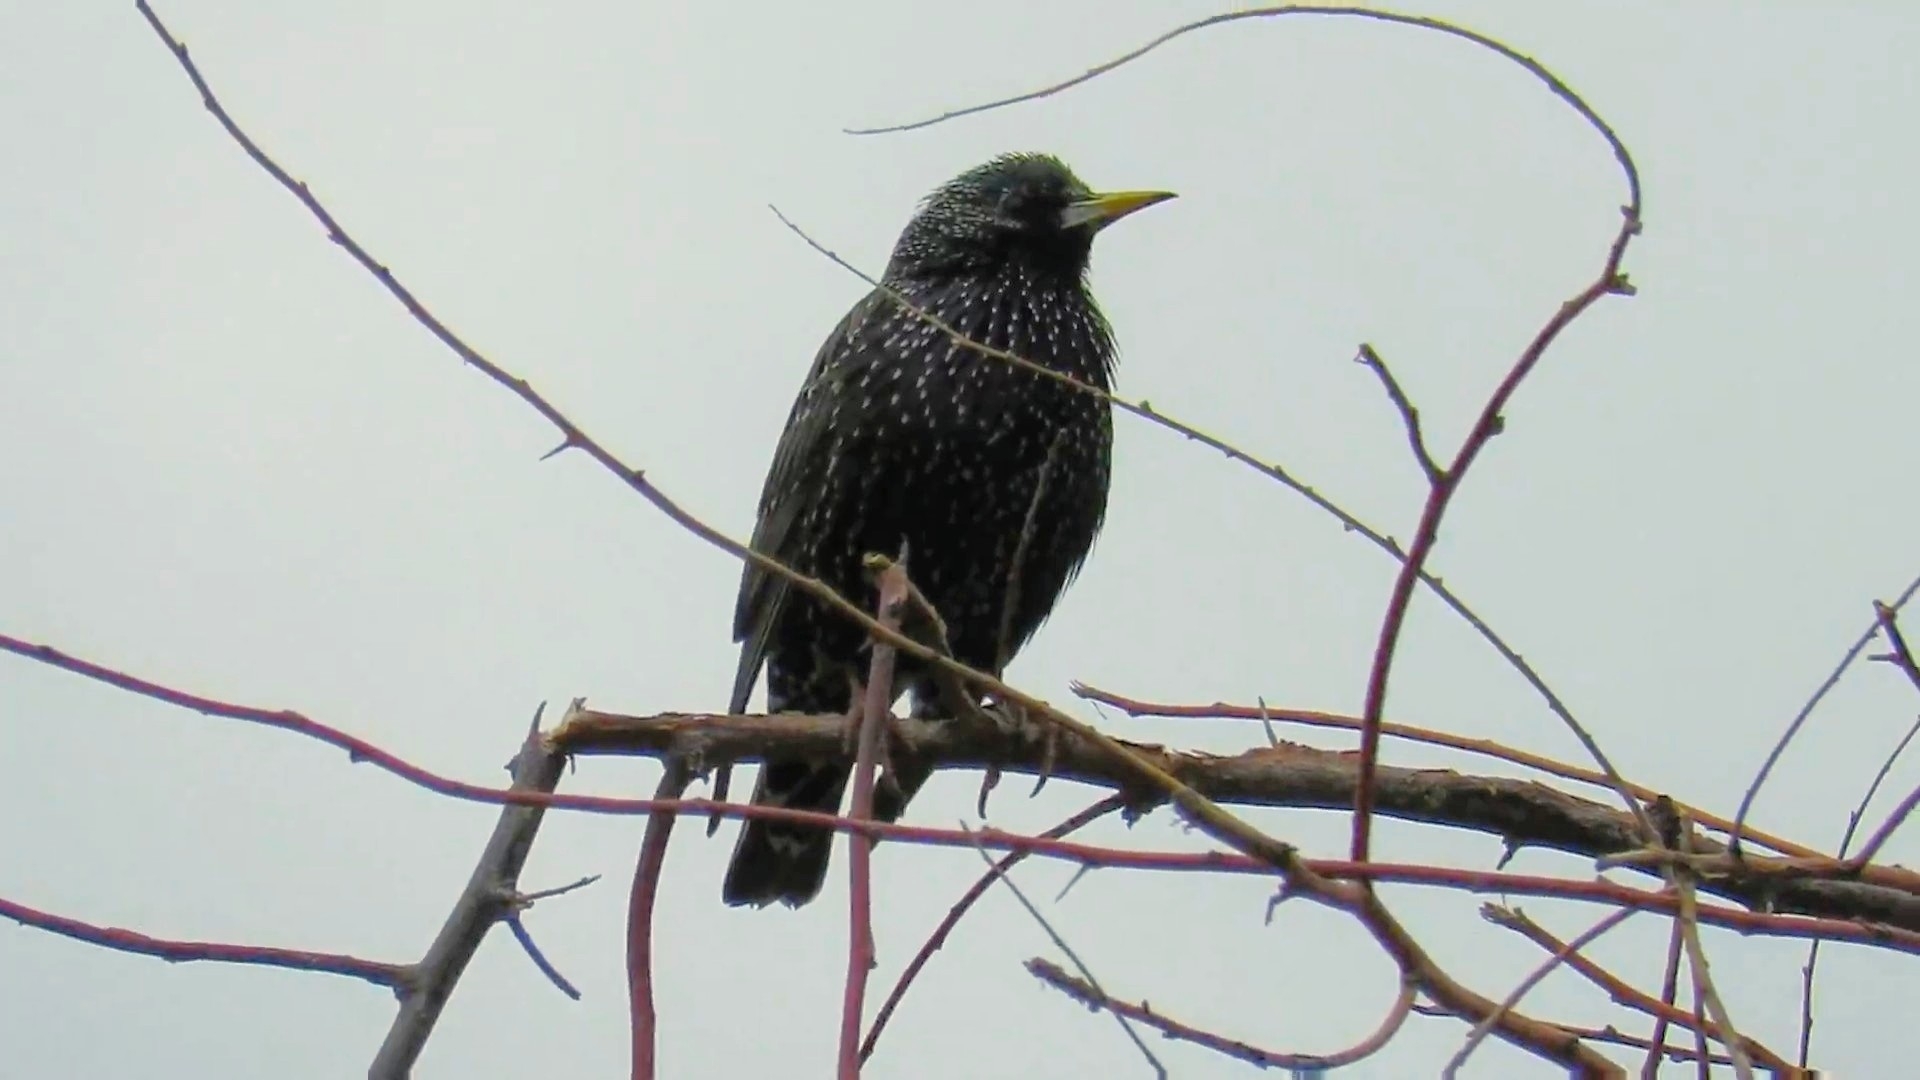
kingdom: Animalia
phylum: Chordata
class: Aves
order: Passeriformes
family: Sturnidae
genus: Sturnus
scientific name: Sturnus vulgaris
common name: Common starling
